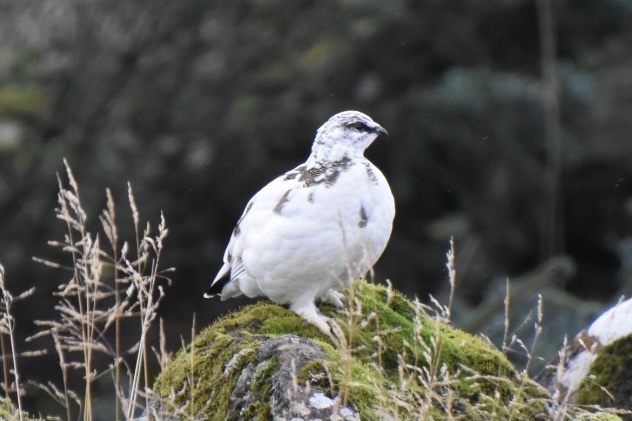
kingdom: Animalia
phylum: Chordata
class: Aves
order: Galliformes
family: Phasianidae
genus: Lagopus
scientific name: Lagopus muta
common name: Rock ptarmigan
